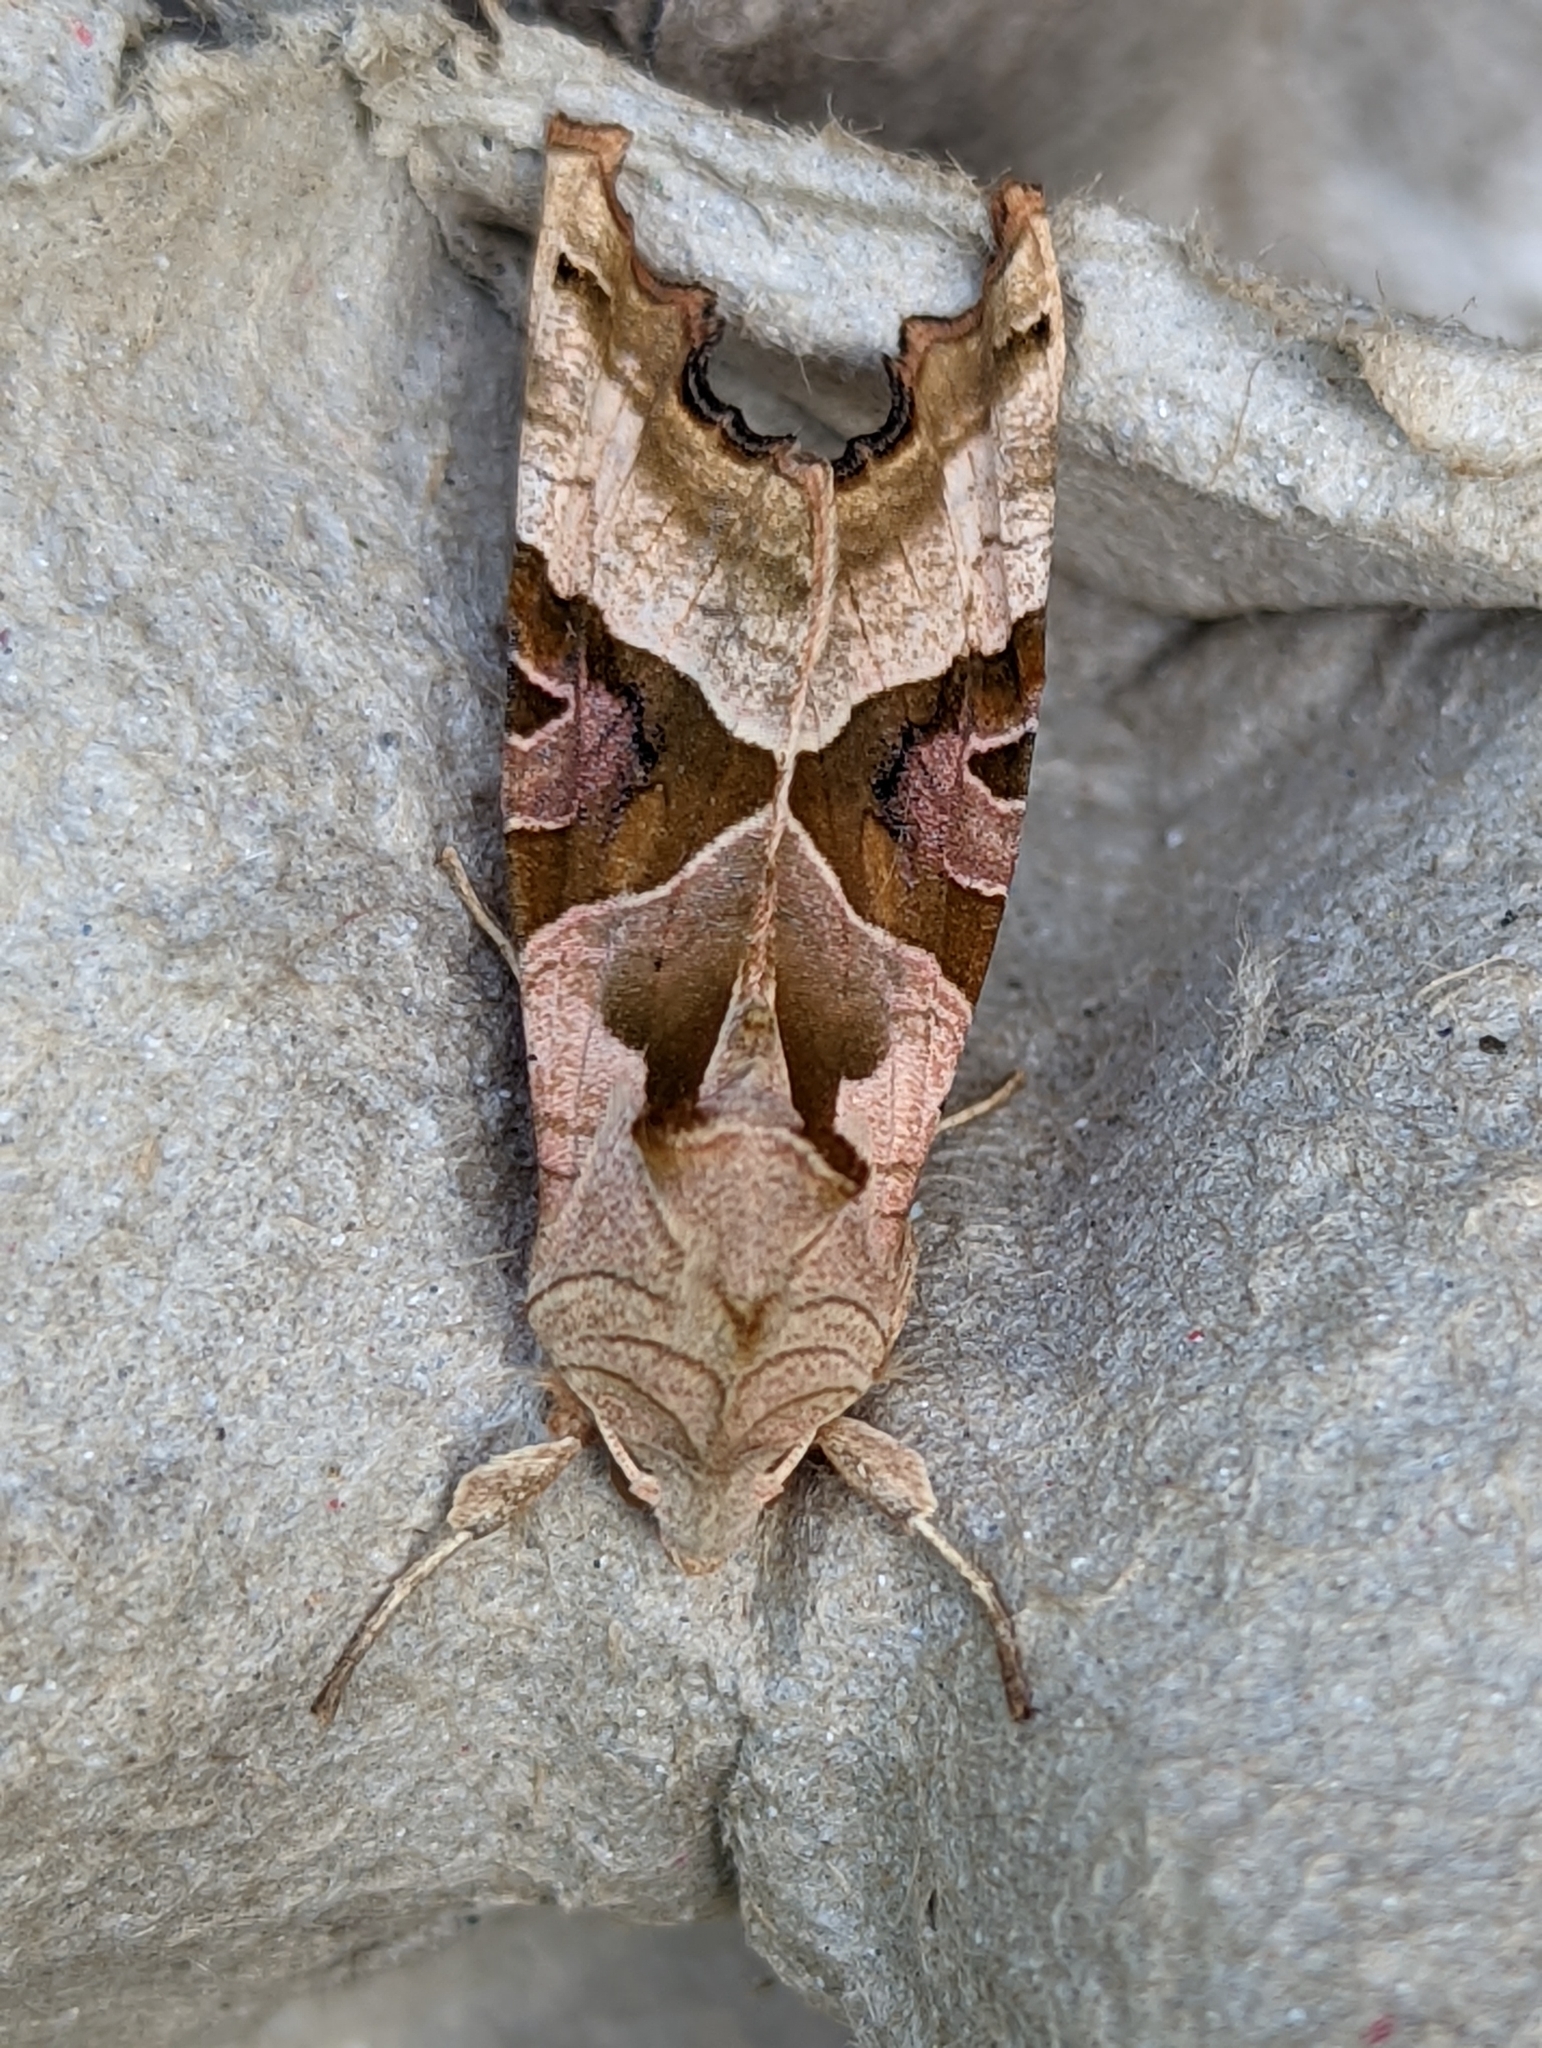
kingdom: Animalia
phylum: Arthropoda
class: Insecta
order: Lepidoptera
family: Noctuidae
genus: Phlogophora
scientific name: Phlogophora meticulosa
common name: Angle shades
